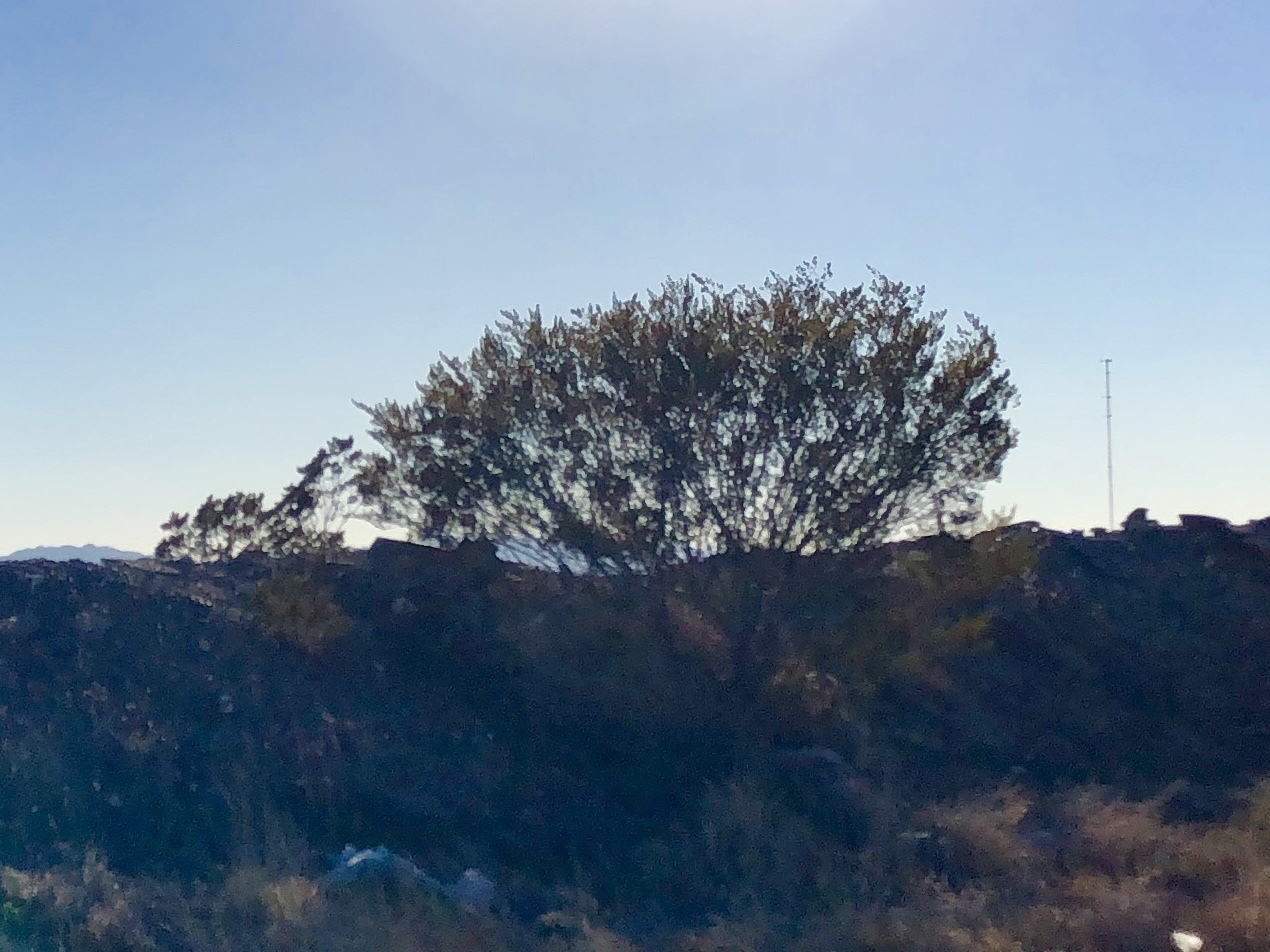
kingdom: Plantae
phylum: Tracheophyta
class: Magnoliopsida
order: Zygophyllales
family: Zygophyllaceae
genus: Larrea
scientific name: Larrea tridentata
